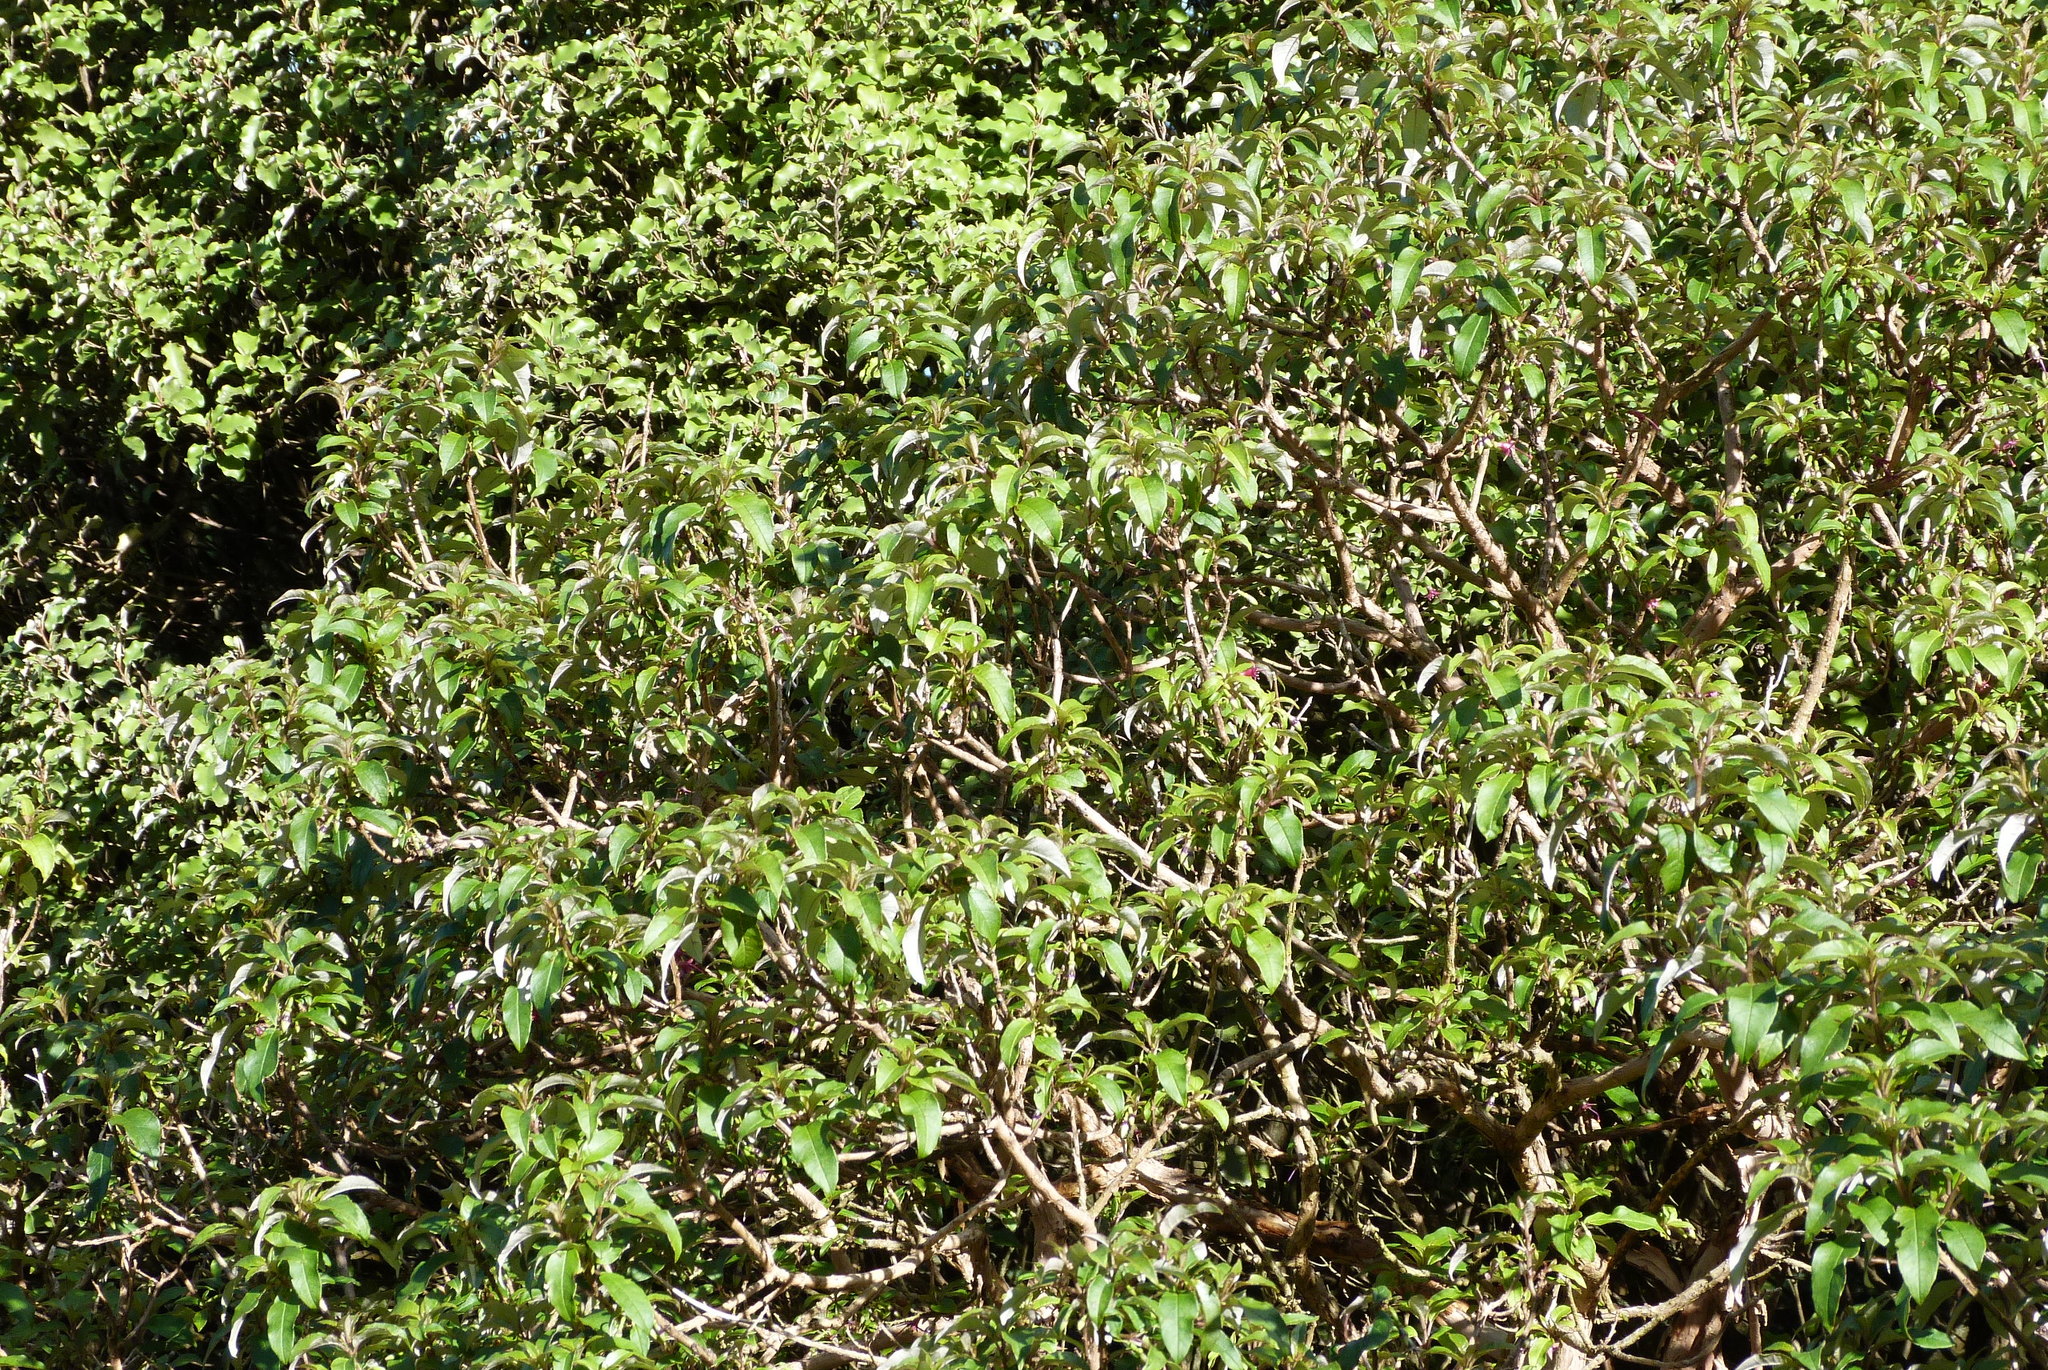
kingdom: Plantae
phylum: Tracheophyta
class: Magnoliopsida
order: Myrtales
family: Onagraceae
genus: Fuchsia
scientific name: Fuchsia excorticata
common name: Tree fuchsia
